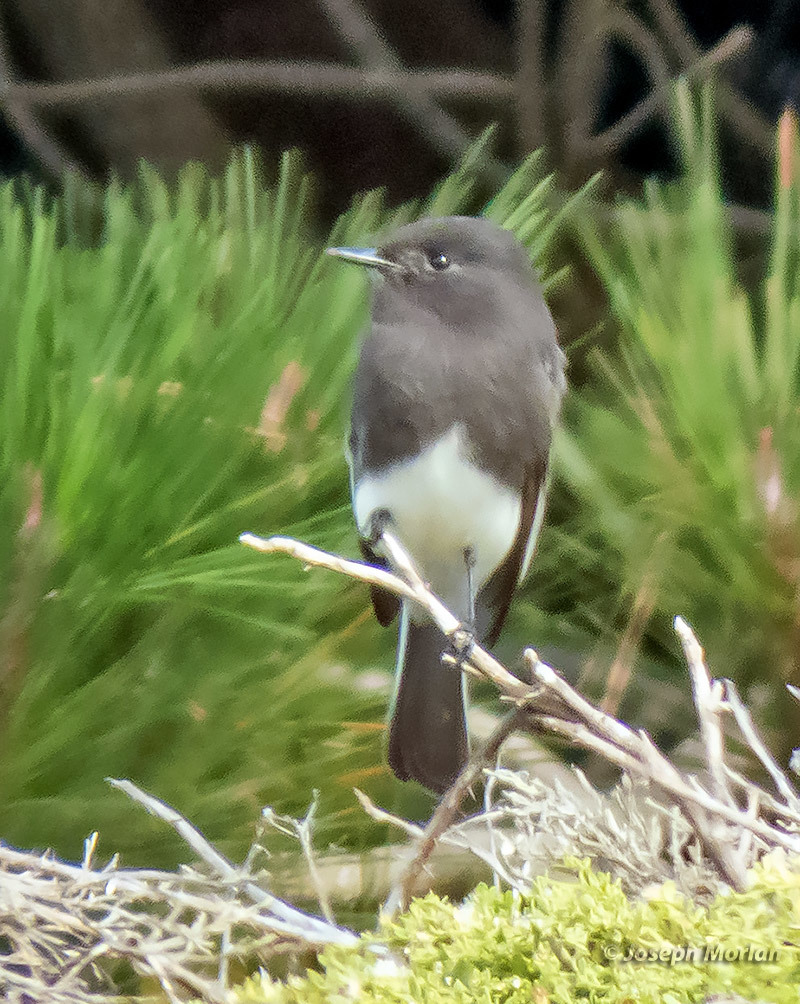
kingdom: Animalia
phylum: Chordata
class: Aves
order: Passeriformes
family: Tyrannidae
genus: Sayornis
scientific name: Sayornis nigricans
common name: Black phoebe
